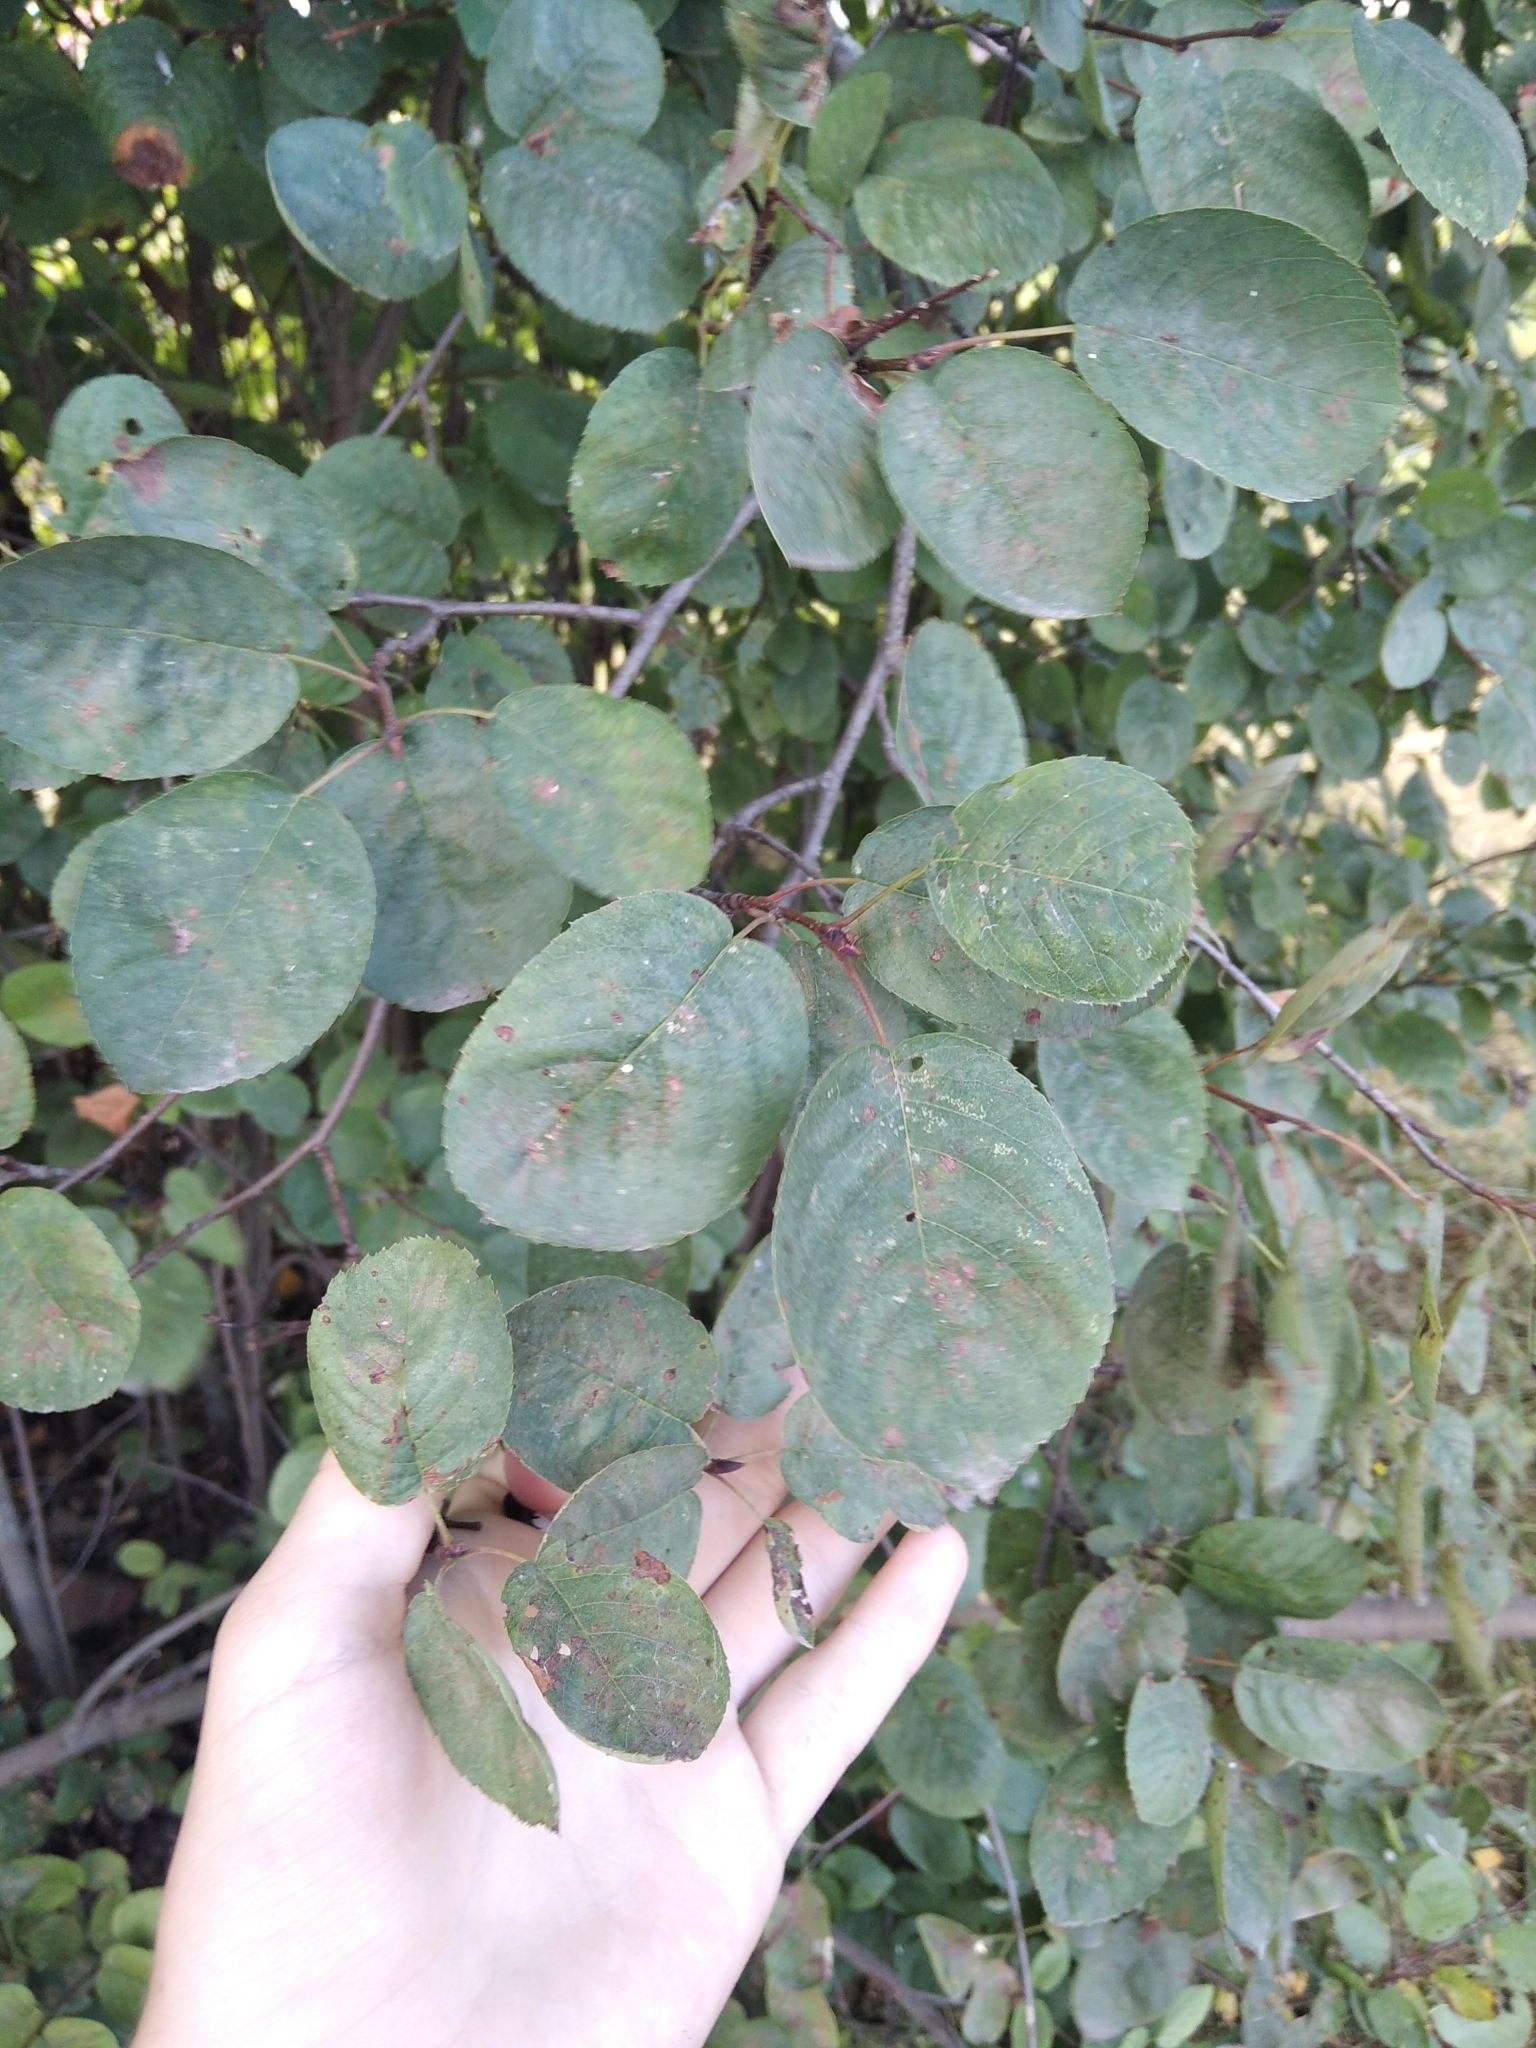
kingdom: Plantae
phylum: Tracheophyta
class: Magnoliopsida
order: Rosales
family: Rosaceae
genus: Amelanchier
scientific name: Amelanchier
